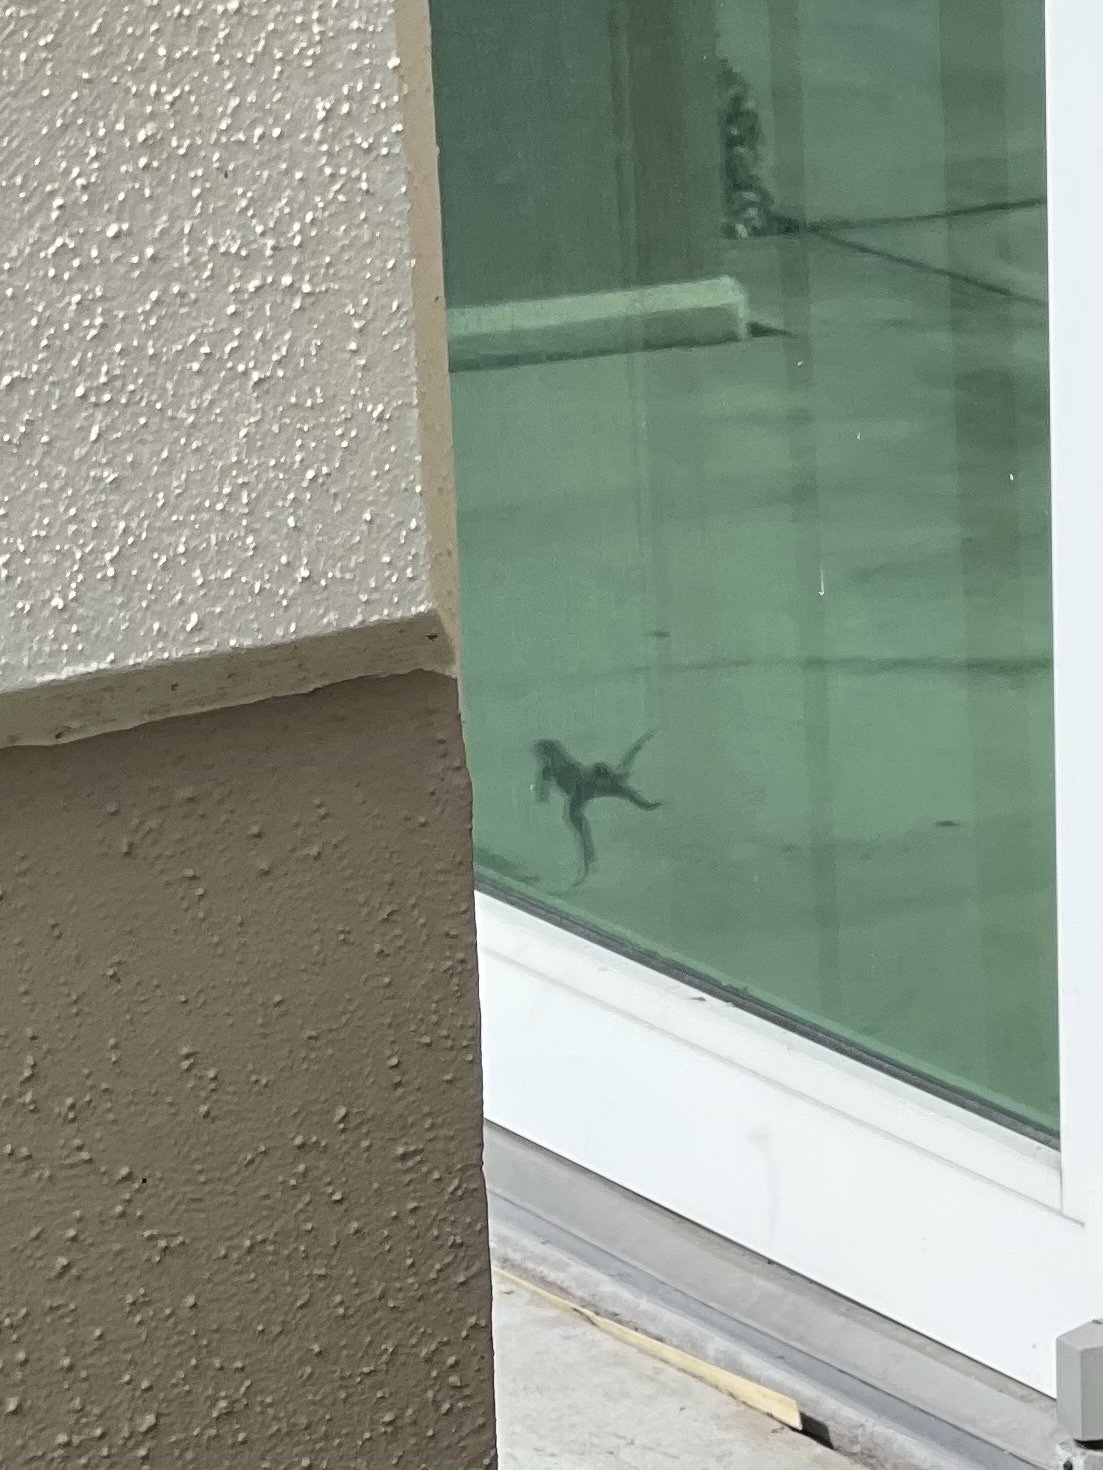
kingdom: Animalia
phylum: Chordata
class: Squamata
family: Teiidae
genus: Ameiva
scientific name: Ameiva ameiva
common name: Giant ameiva
